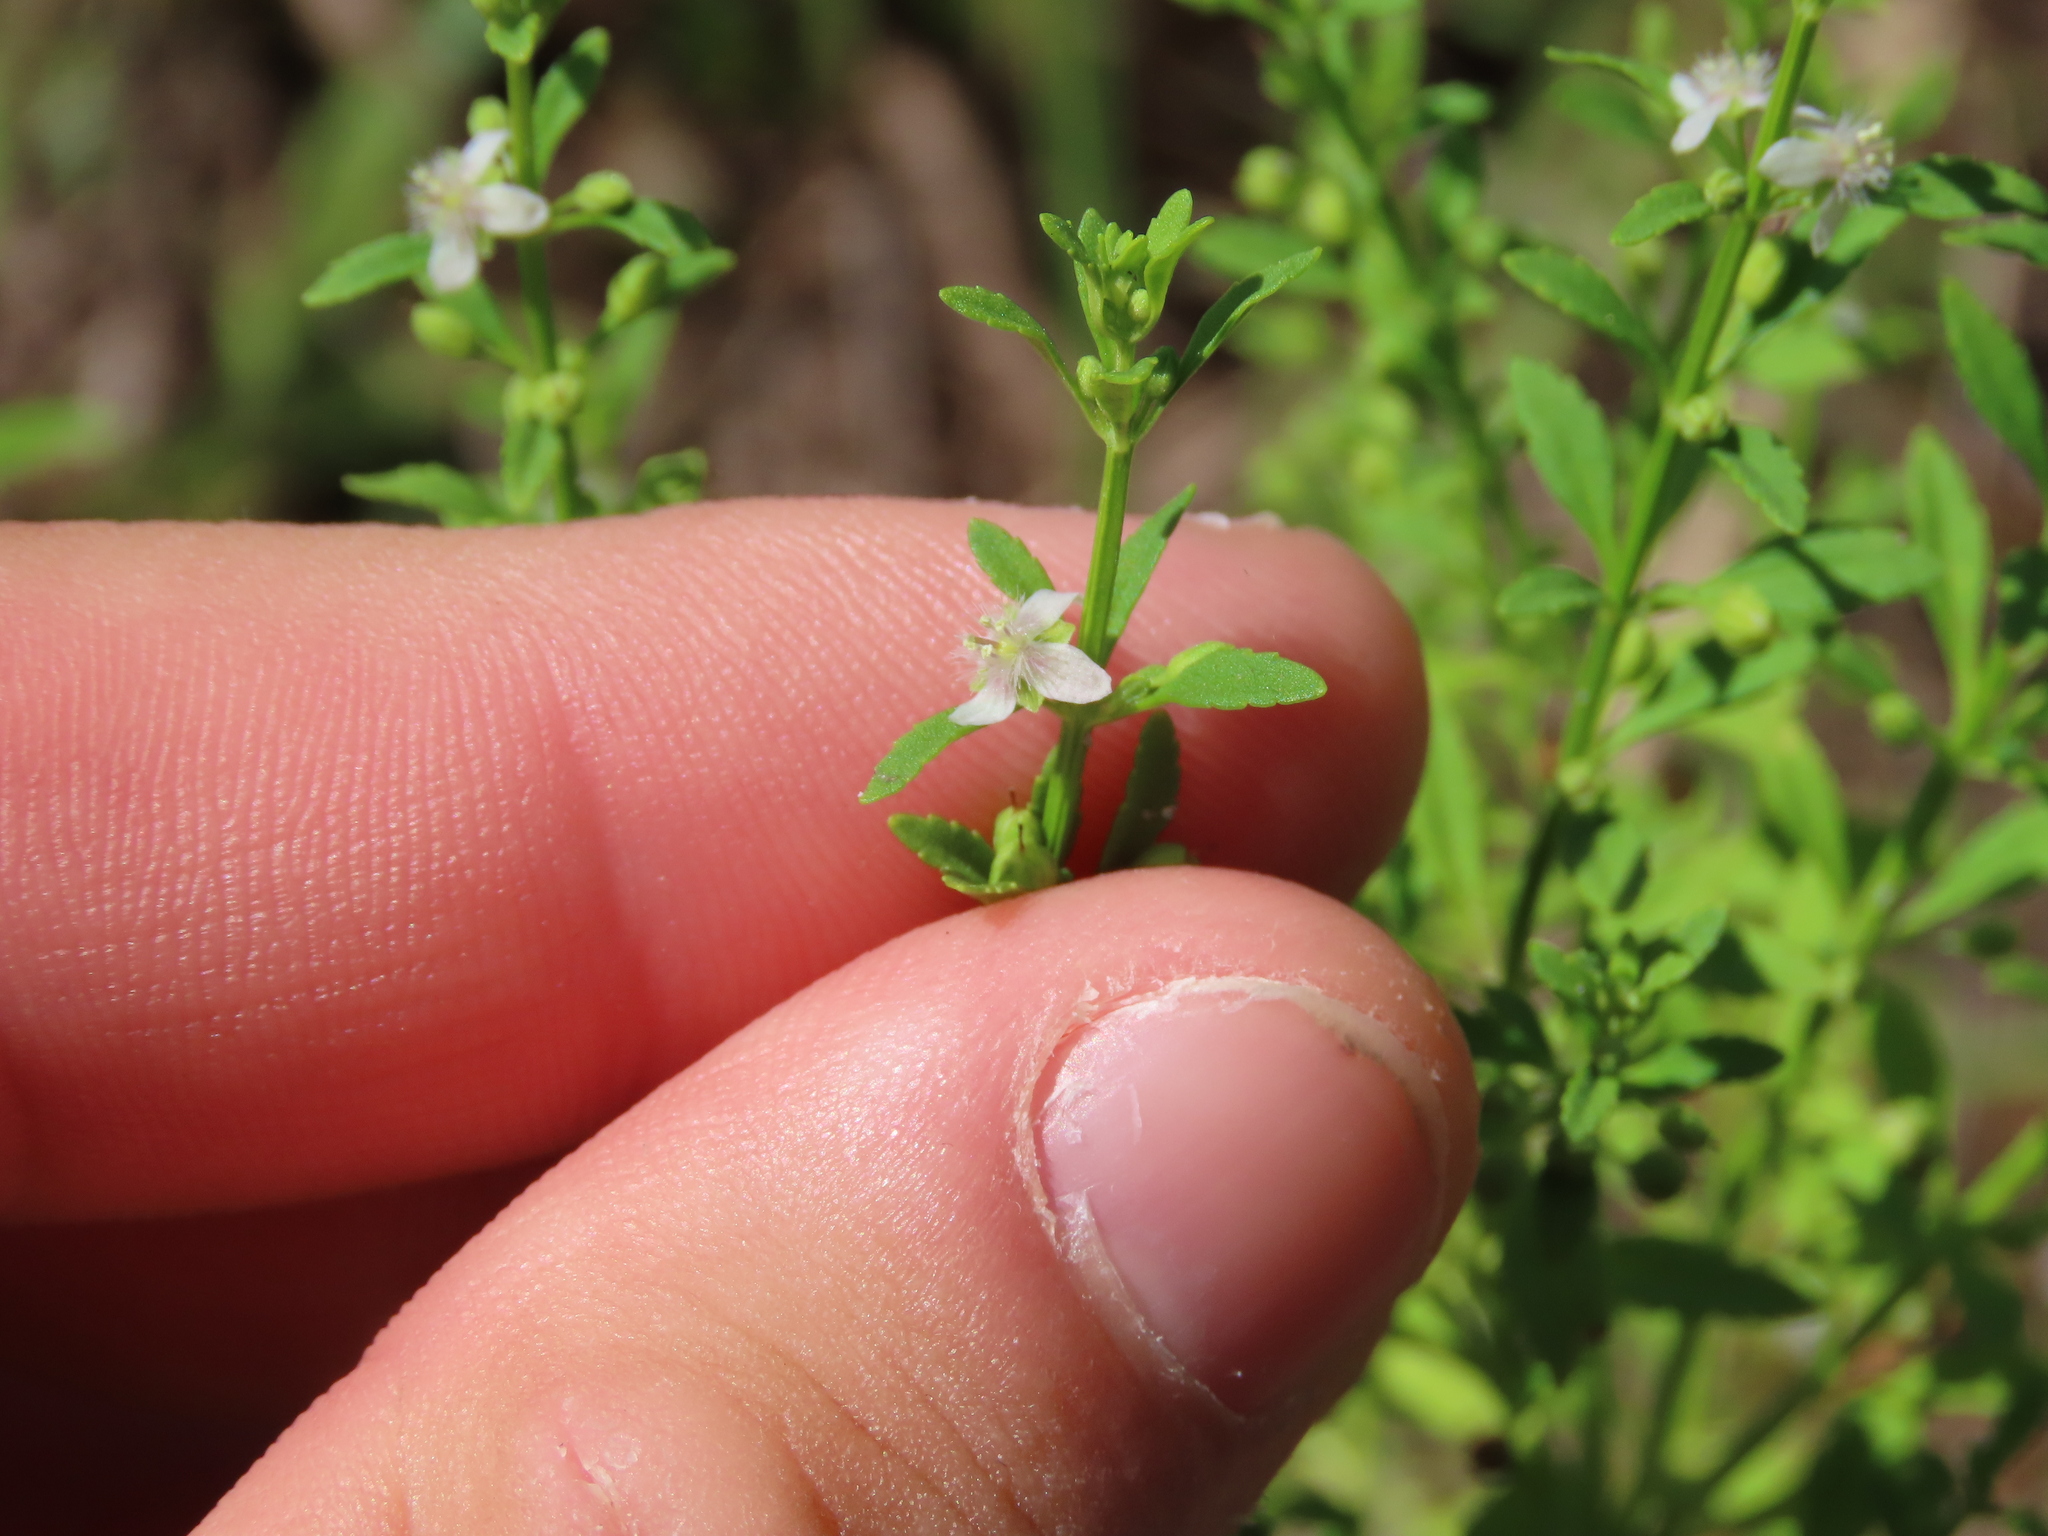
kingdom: Plantae
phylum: Tracheophyta
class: Magnoliopsida
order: Lamiales
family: Plantaginaceae
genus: Scoparia
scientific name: Scoparia dulcis
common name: Scoparia-weed
